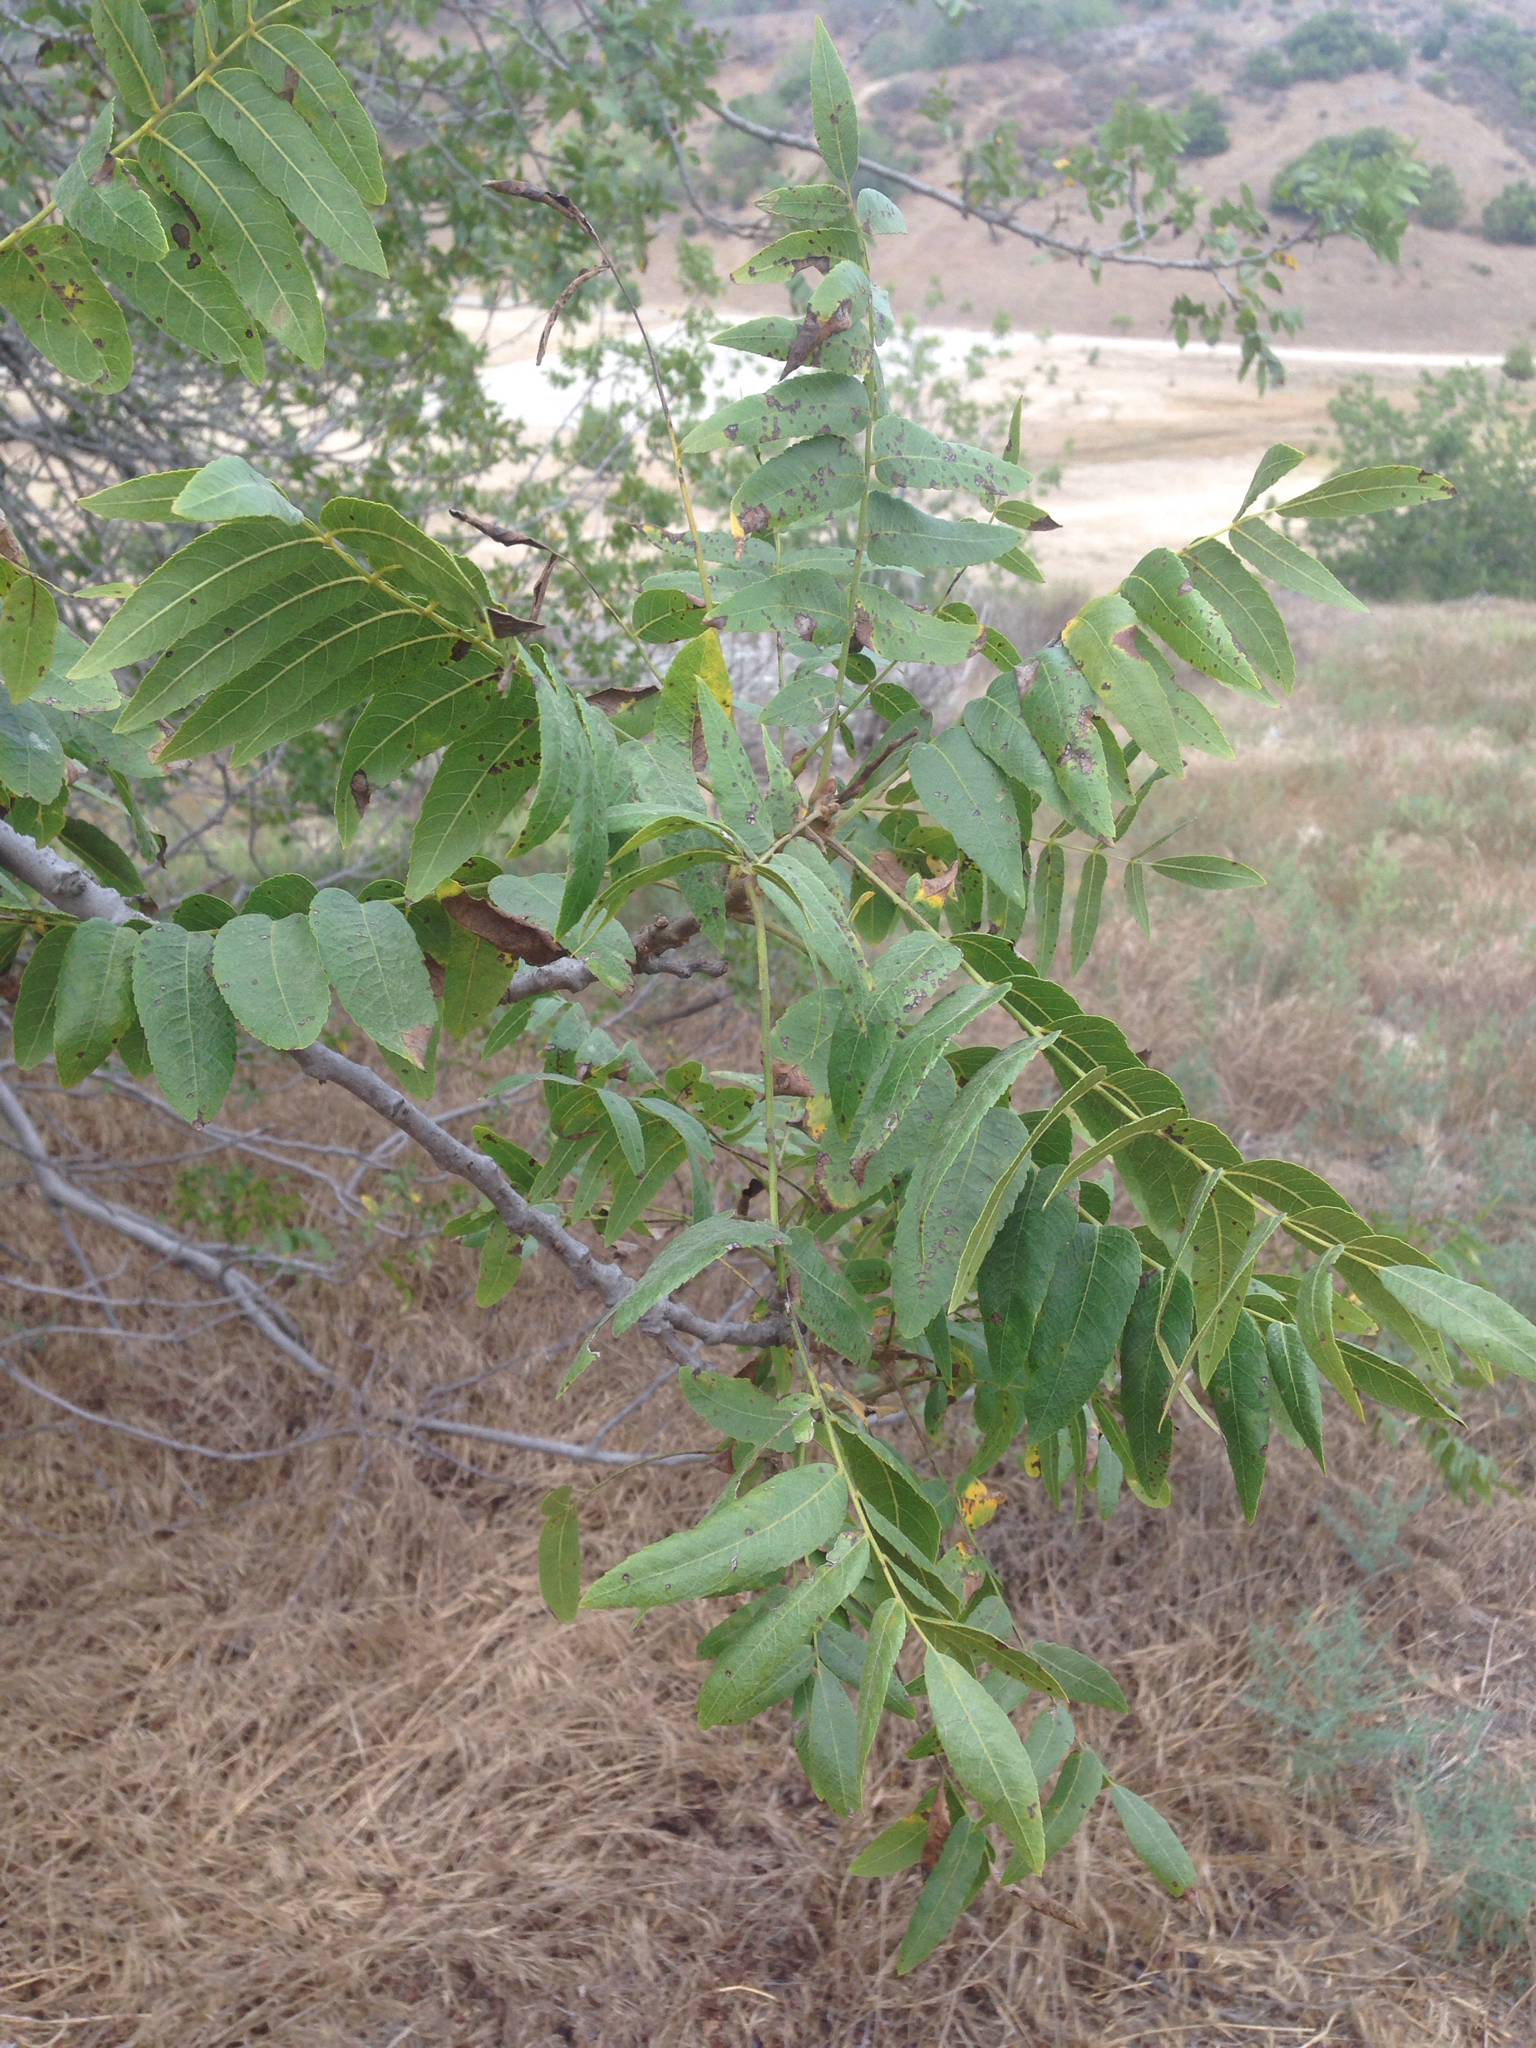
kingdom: Plantae
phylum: Tracheophyta
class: Magnoliopsida
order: Fagales
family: Juglandaceae
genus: Juglans
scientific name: Juglans californica
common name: Southern california black walnut
